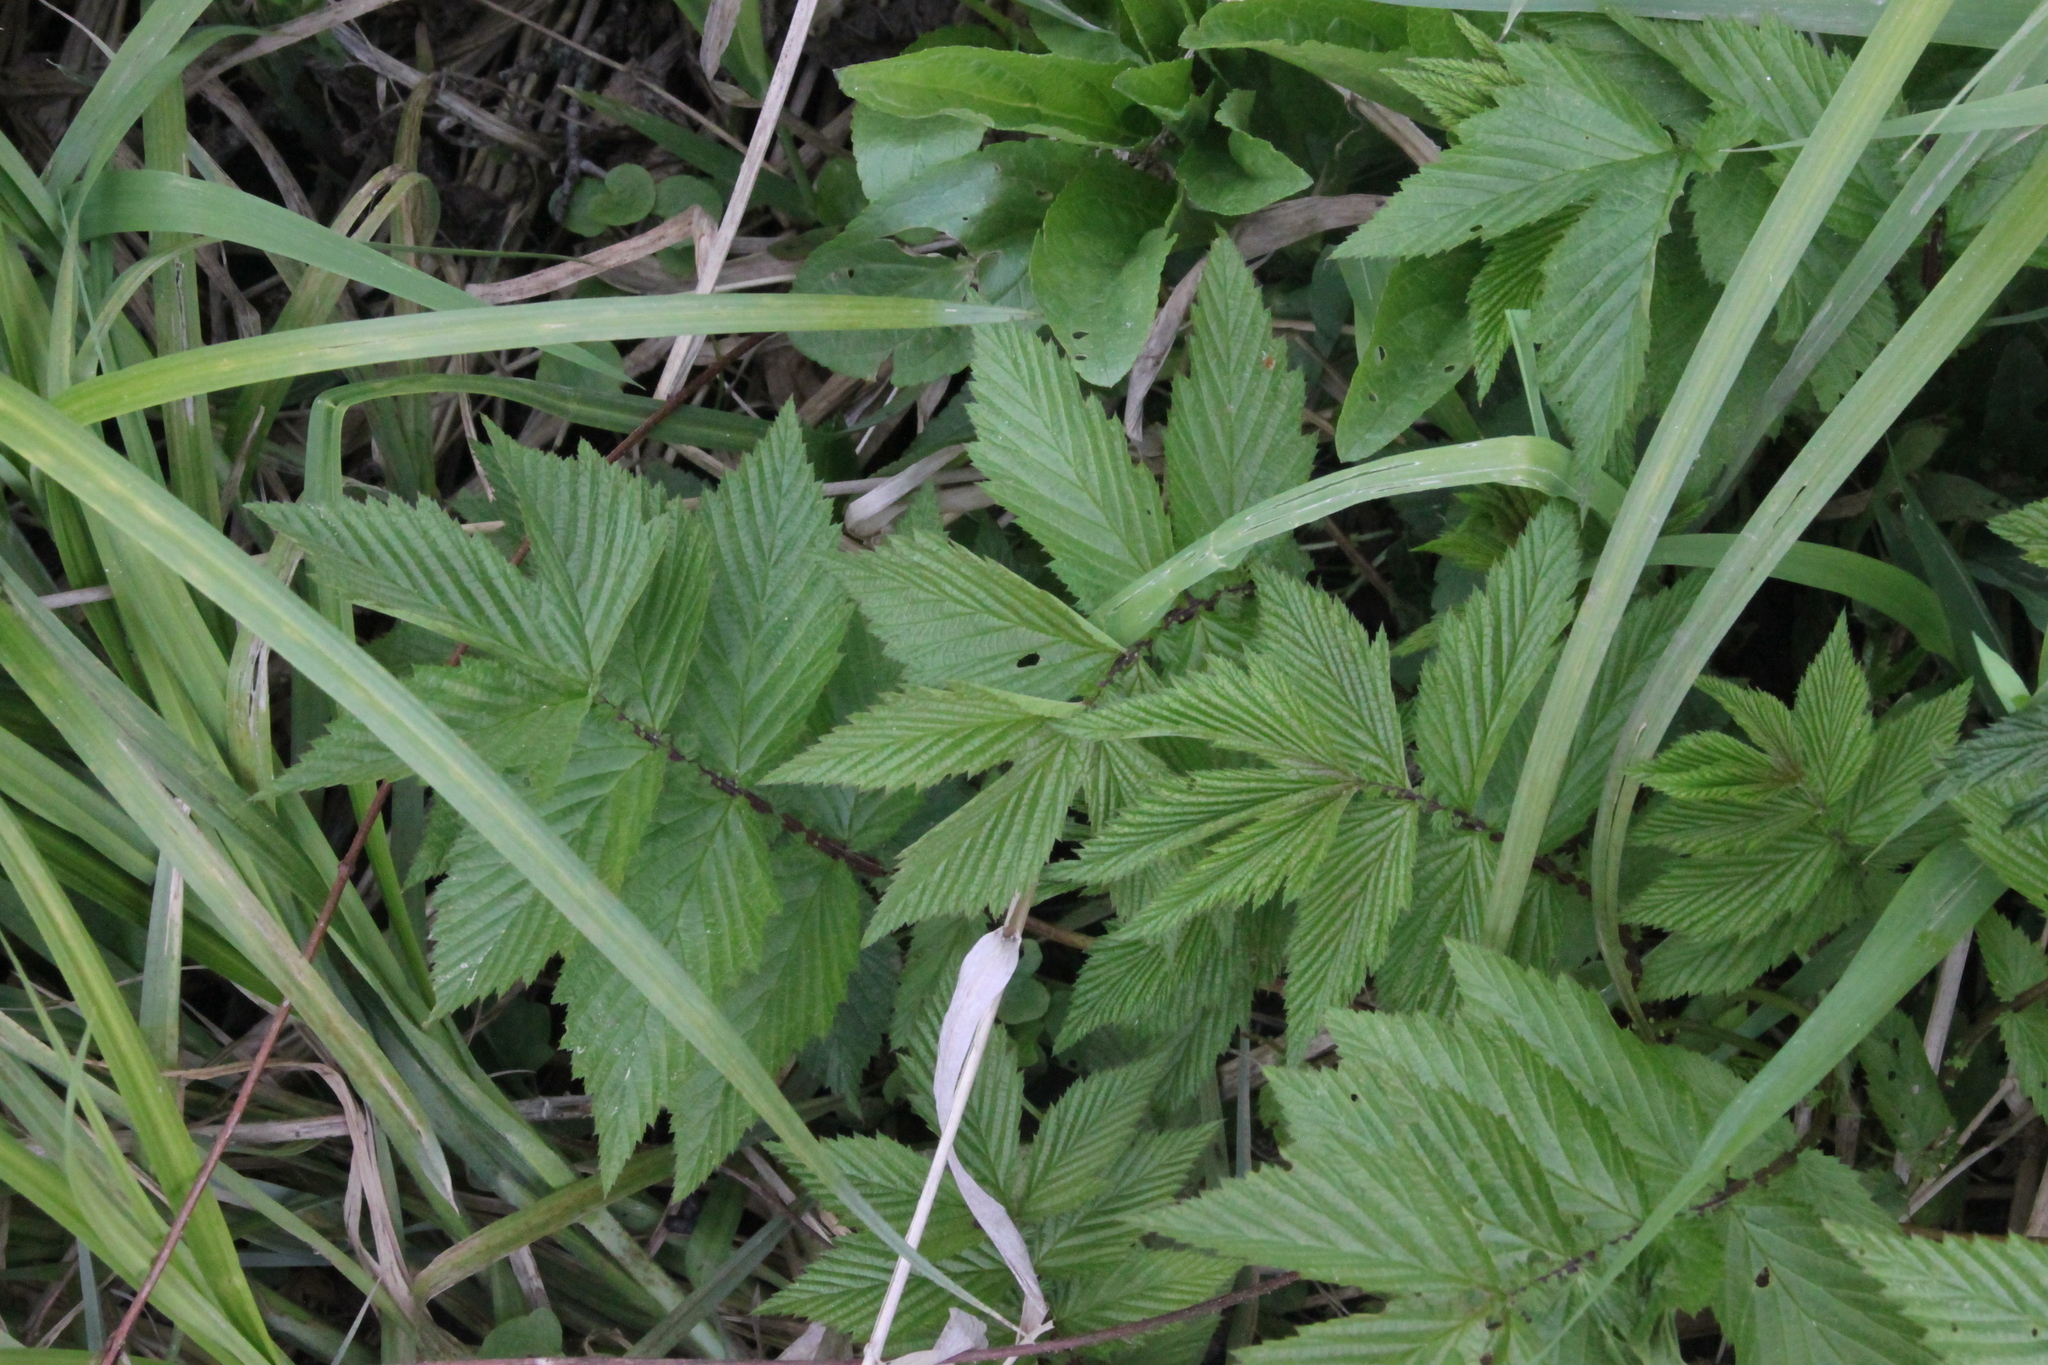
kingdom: Plantae
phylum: Tracheophyta
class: Magnoliopsida
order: Rosales
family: Rosaceae
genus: Filipendula
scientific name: Filipendula ulmaria
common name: Meadowsweet
